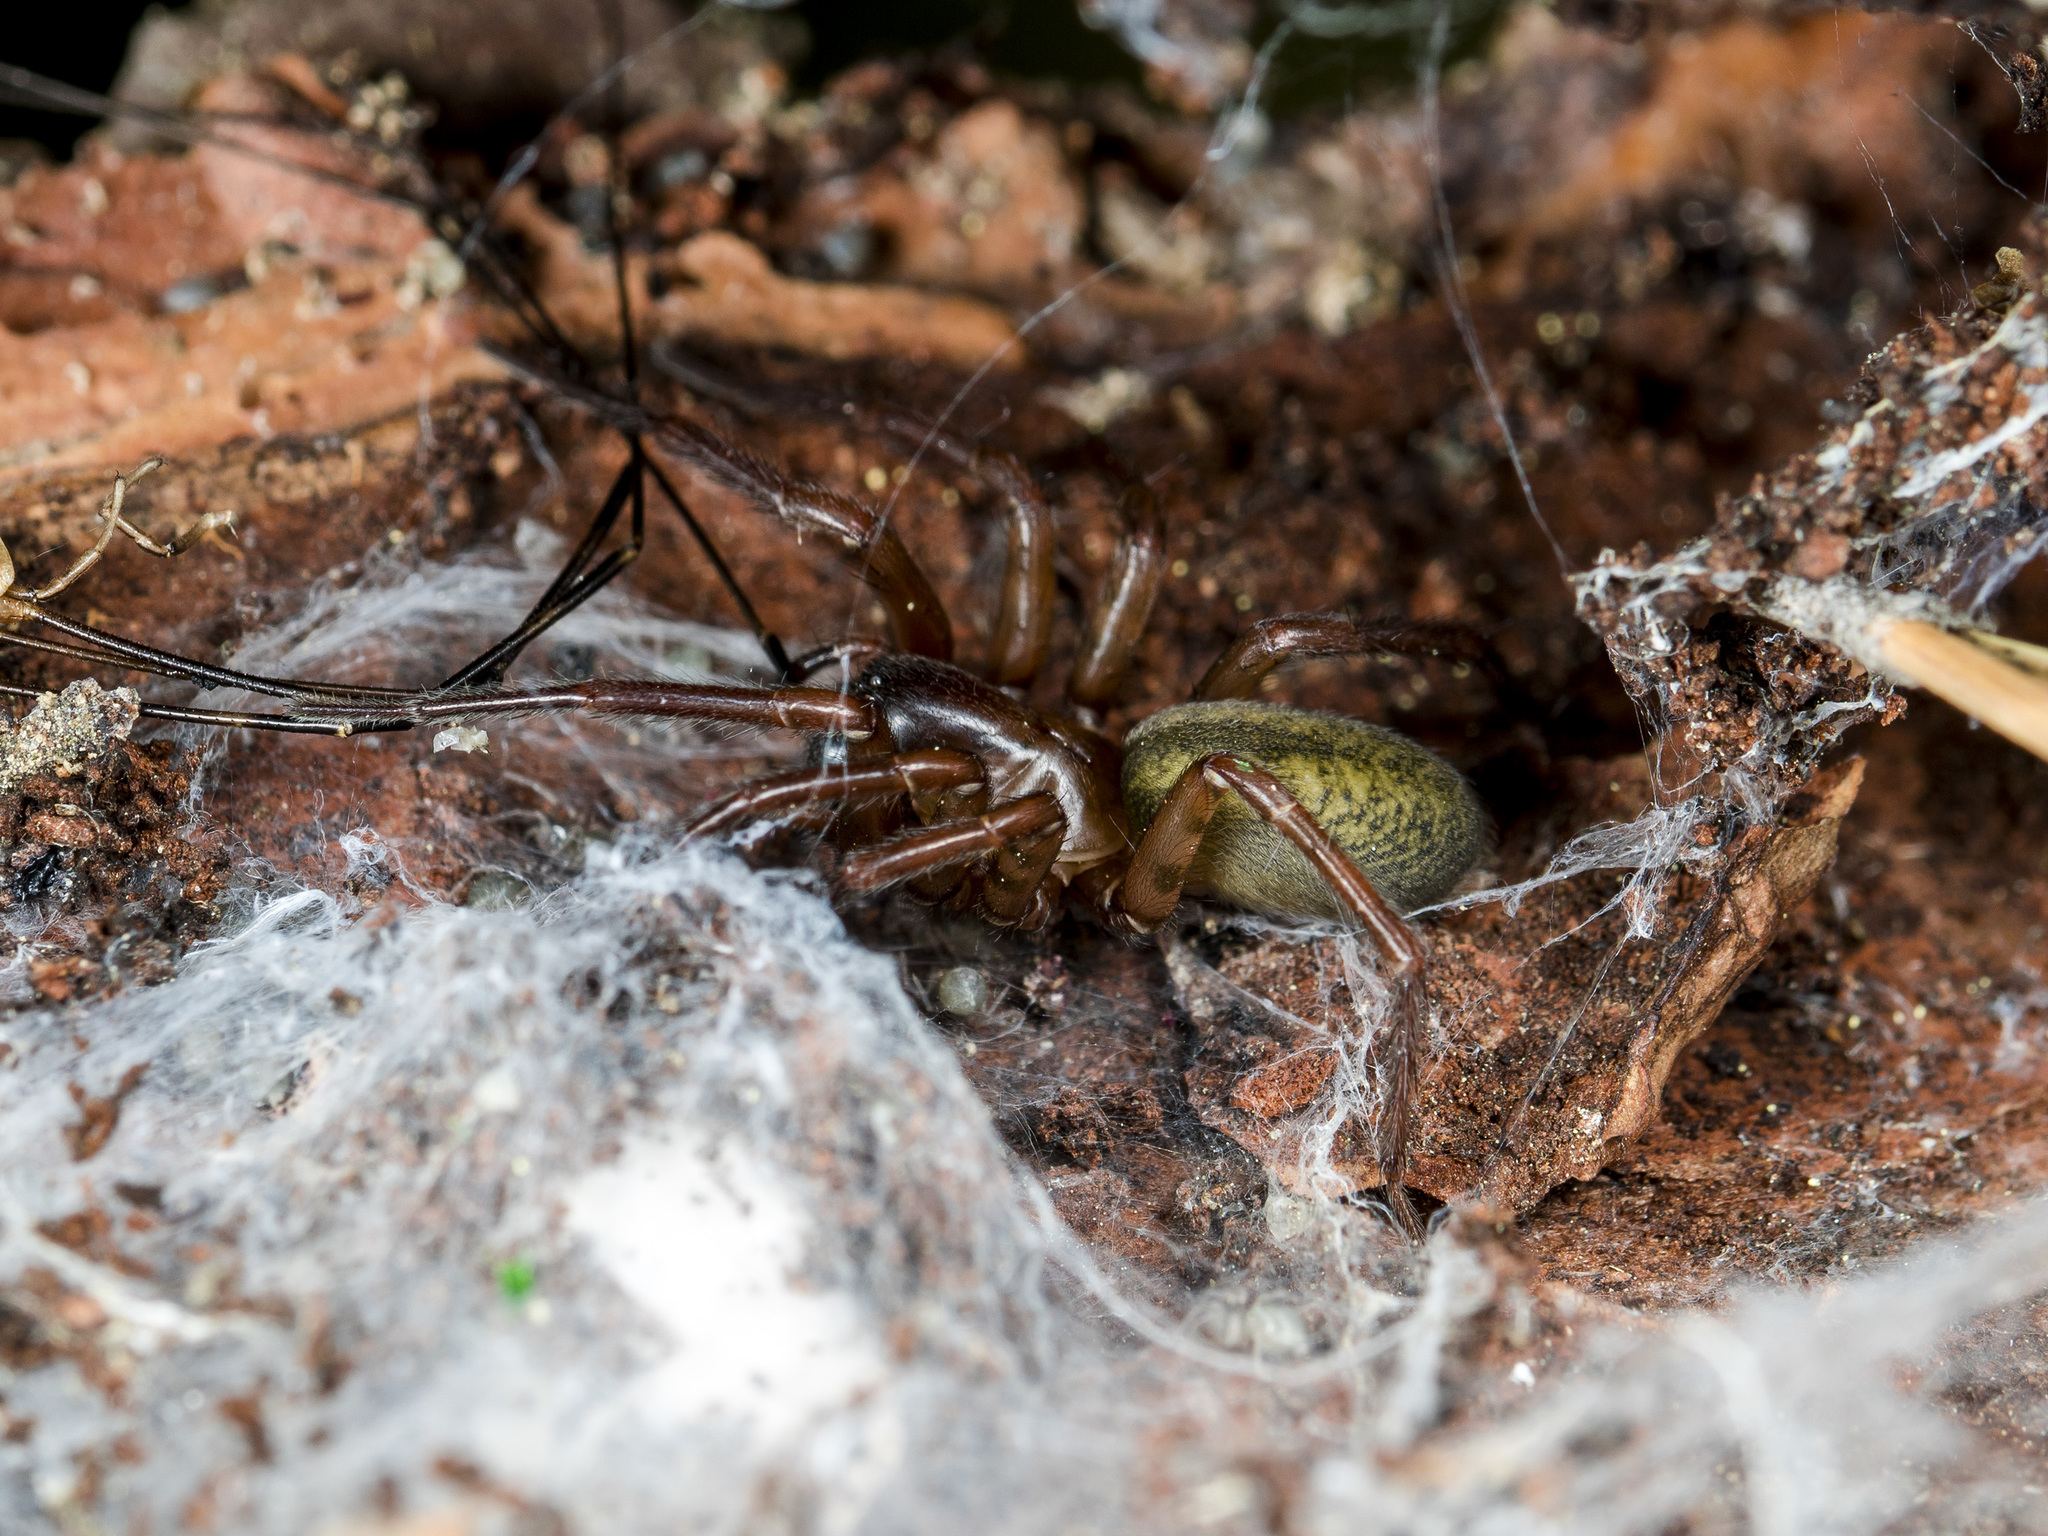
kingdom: Animalia
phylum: Arthropoda
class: Arachnida
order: Araneae
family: Agelenidae
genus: Coelotes
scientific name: Coelotes curvilamnis
